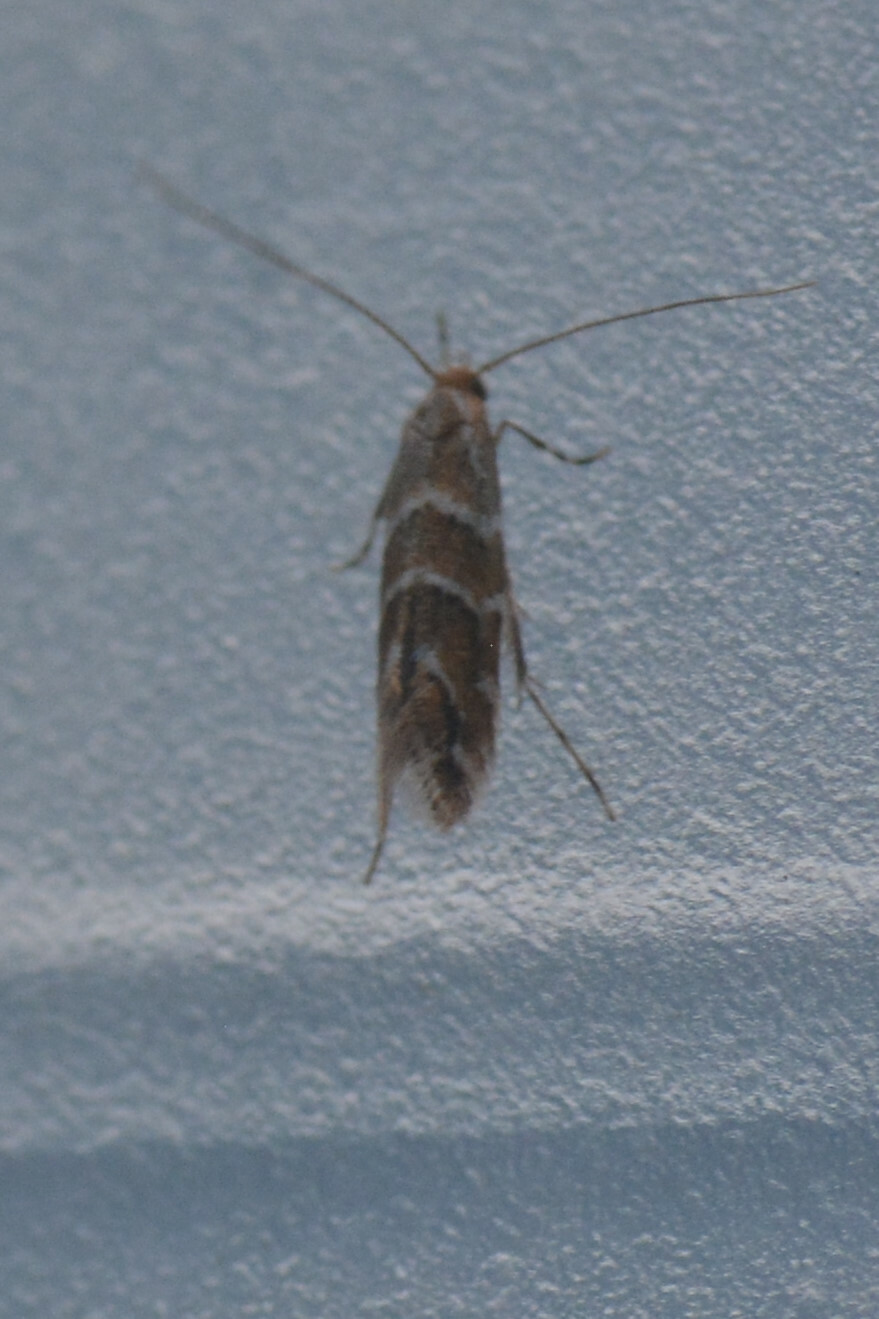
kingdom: Animalia
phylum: Arthropoda
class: Insecta
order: Lepidoptera
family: Gracillariidae
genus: Cameraria
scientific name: Cameraria ohridella
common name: Horse-chestnut leaf-miner
